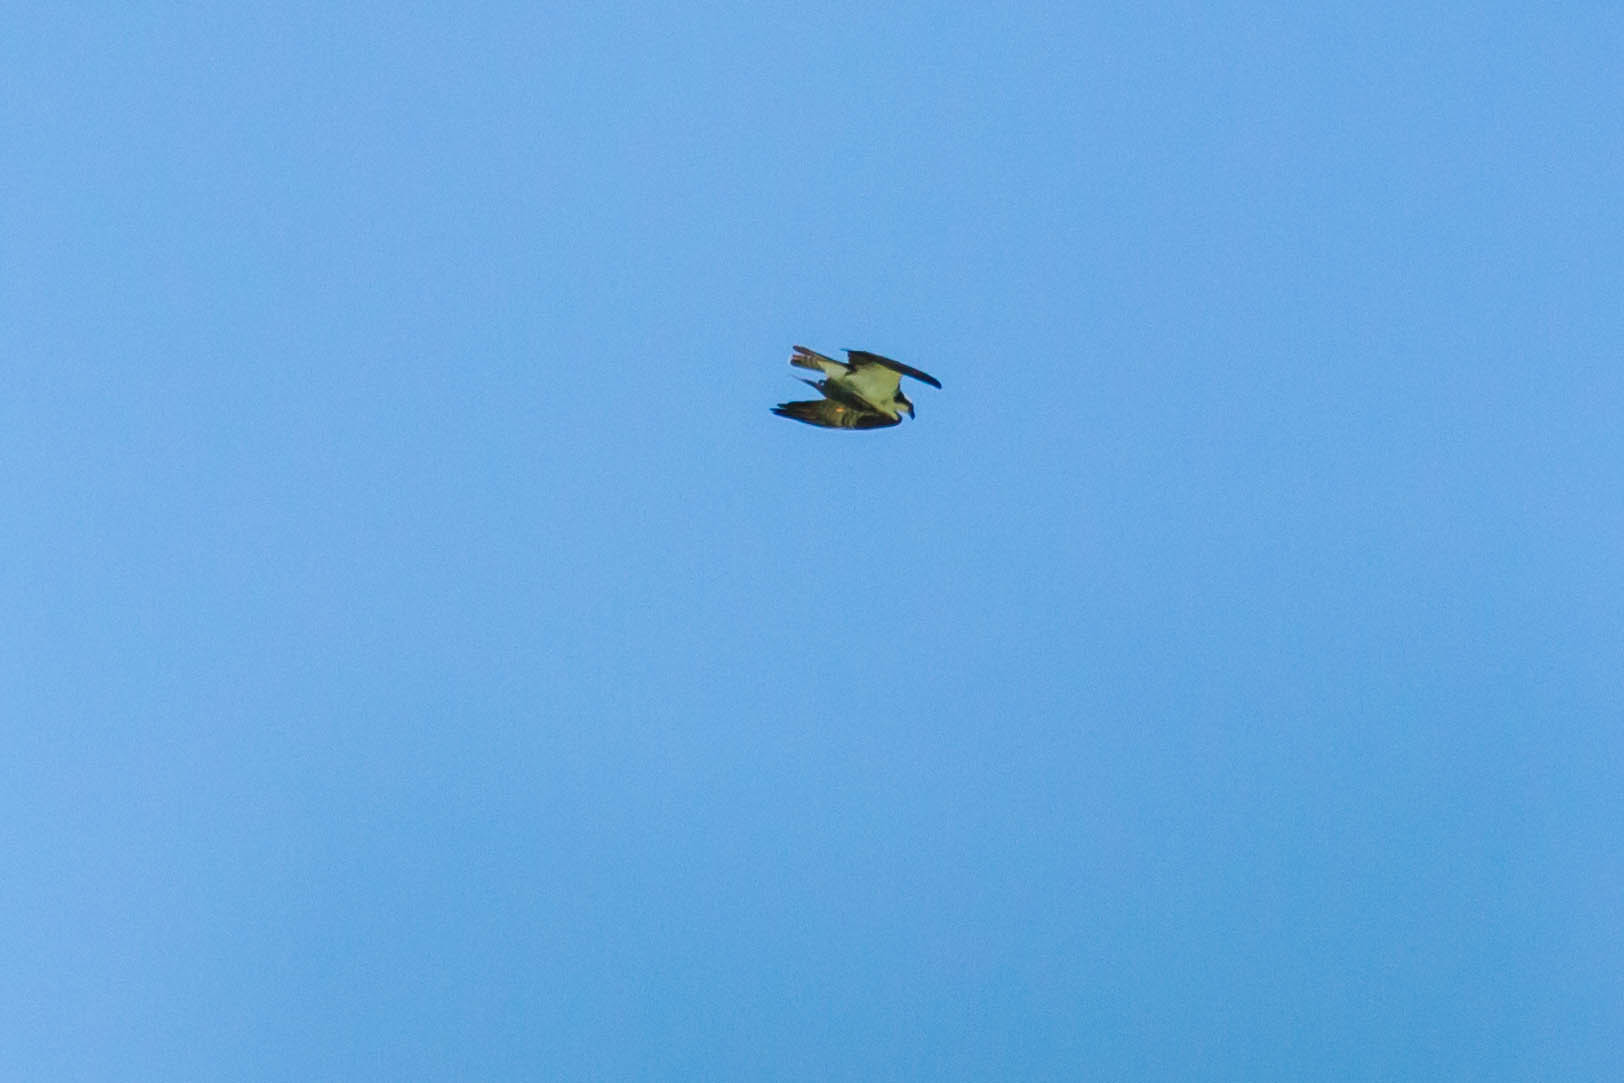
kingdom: Animalia
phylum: Chordata
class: Aves
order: Accipitriformes
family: Pandionidae
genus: Pandion
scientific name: Pandion haliaetus
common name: Osprey
